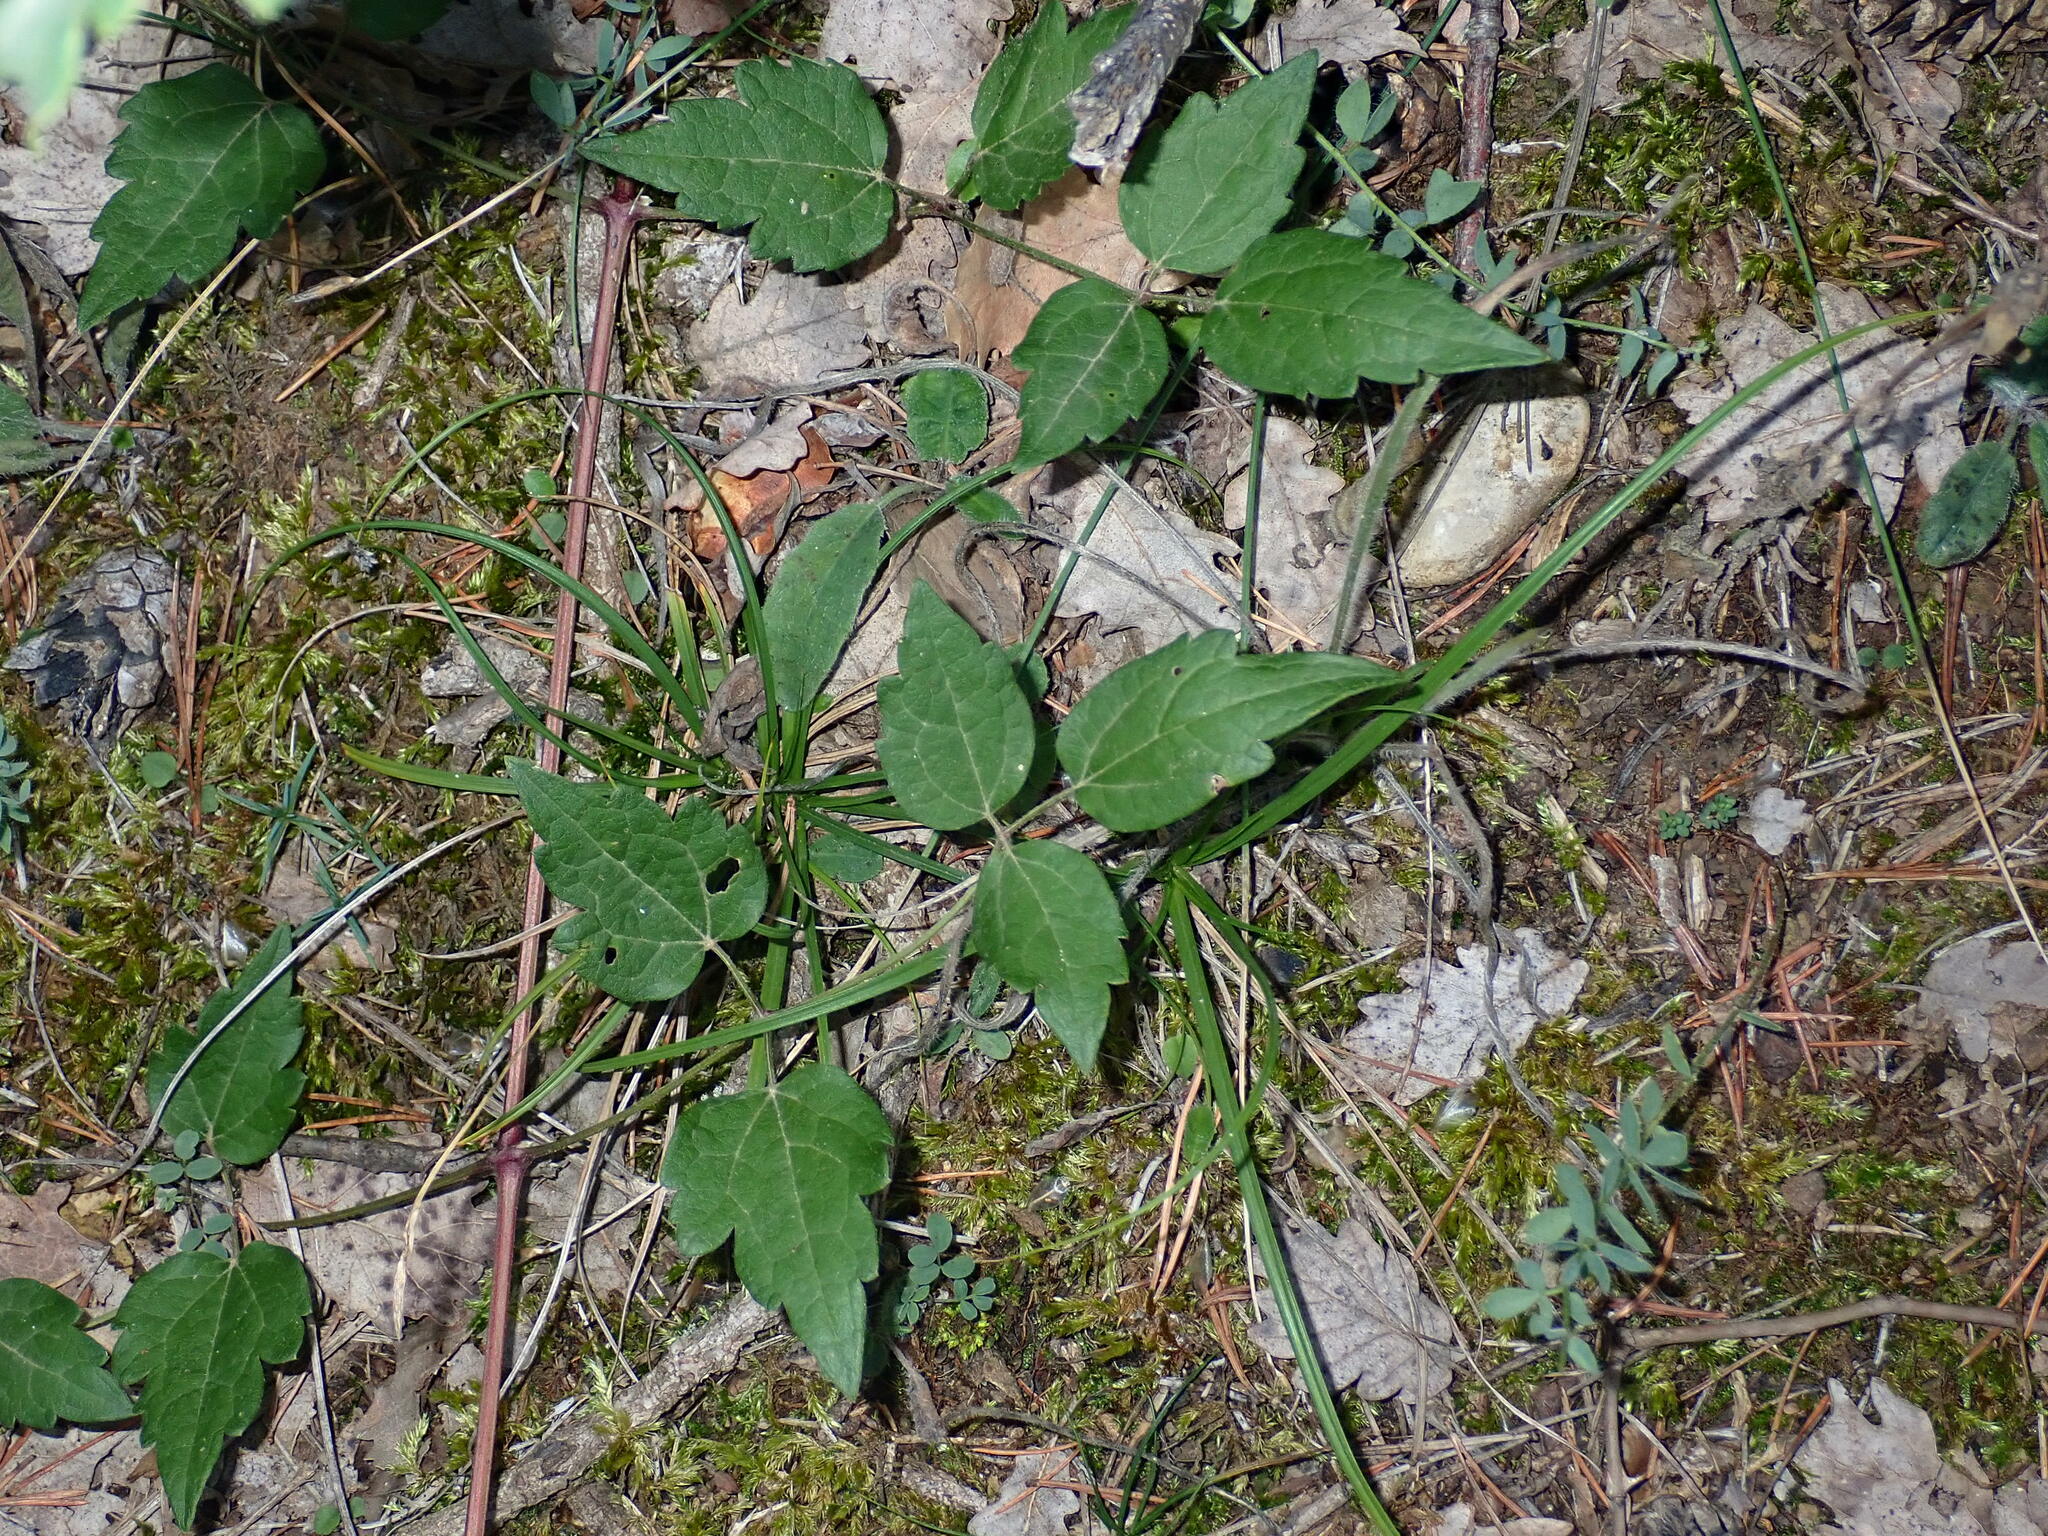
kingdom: Plantae
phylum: Tracheophyta
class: Magnoliopsida
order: Ranunculales
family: Ranunculaceae
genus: Clematis
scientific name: Clematis vitalba
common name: Evergreen clematis
